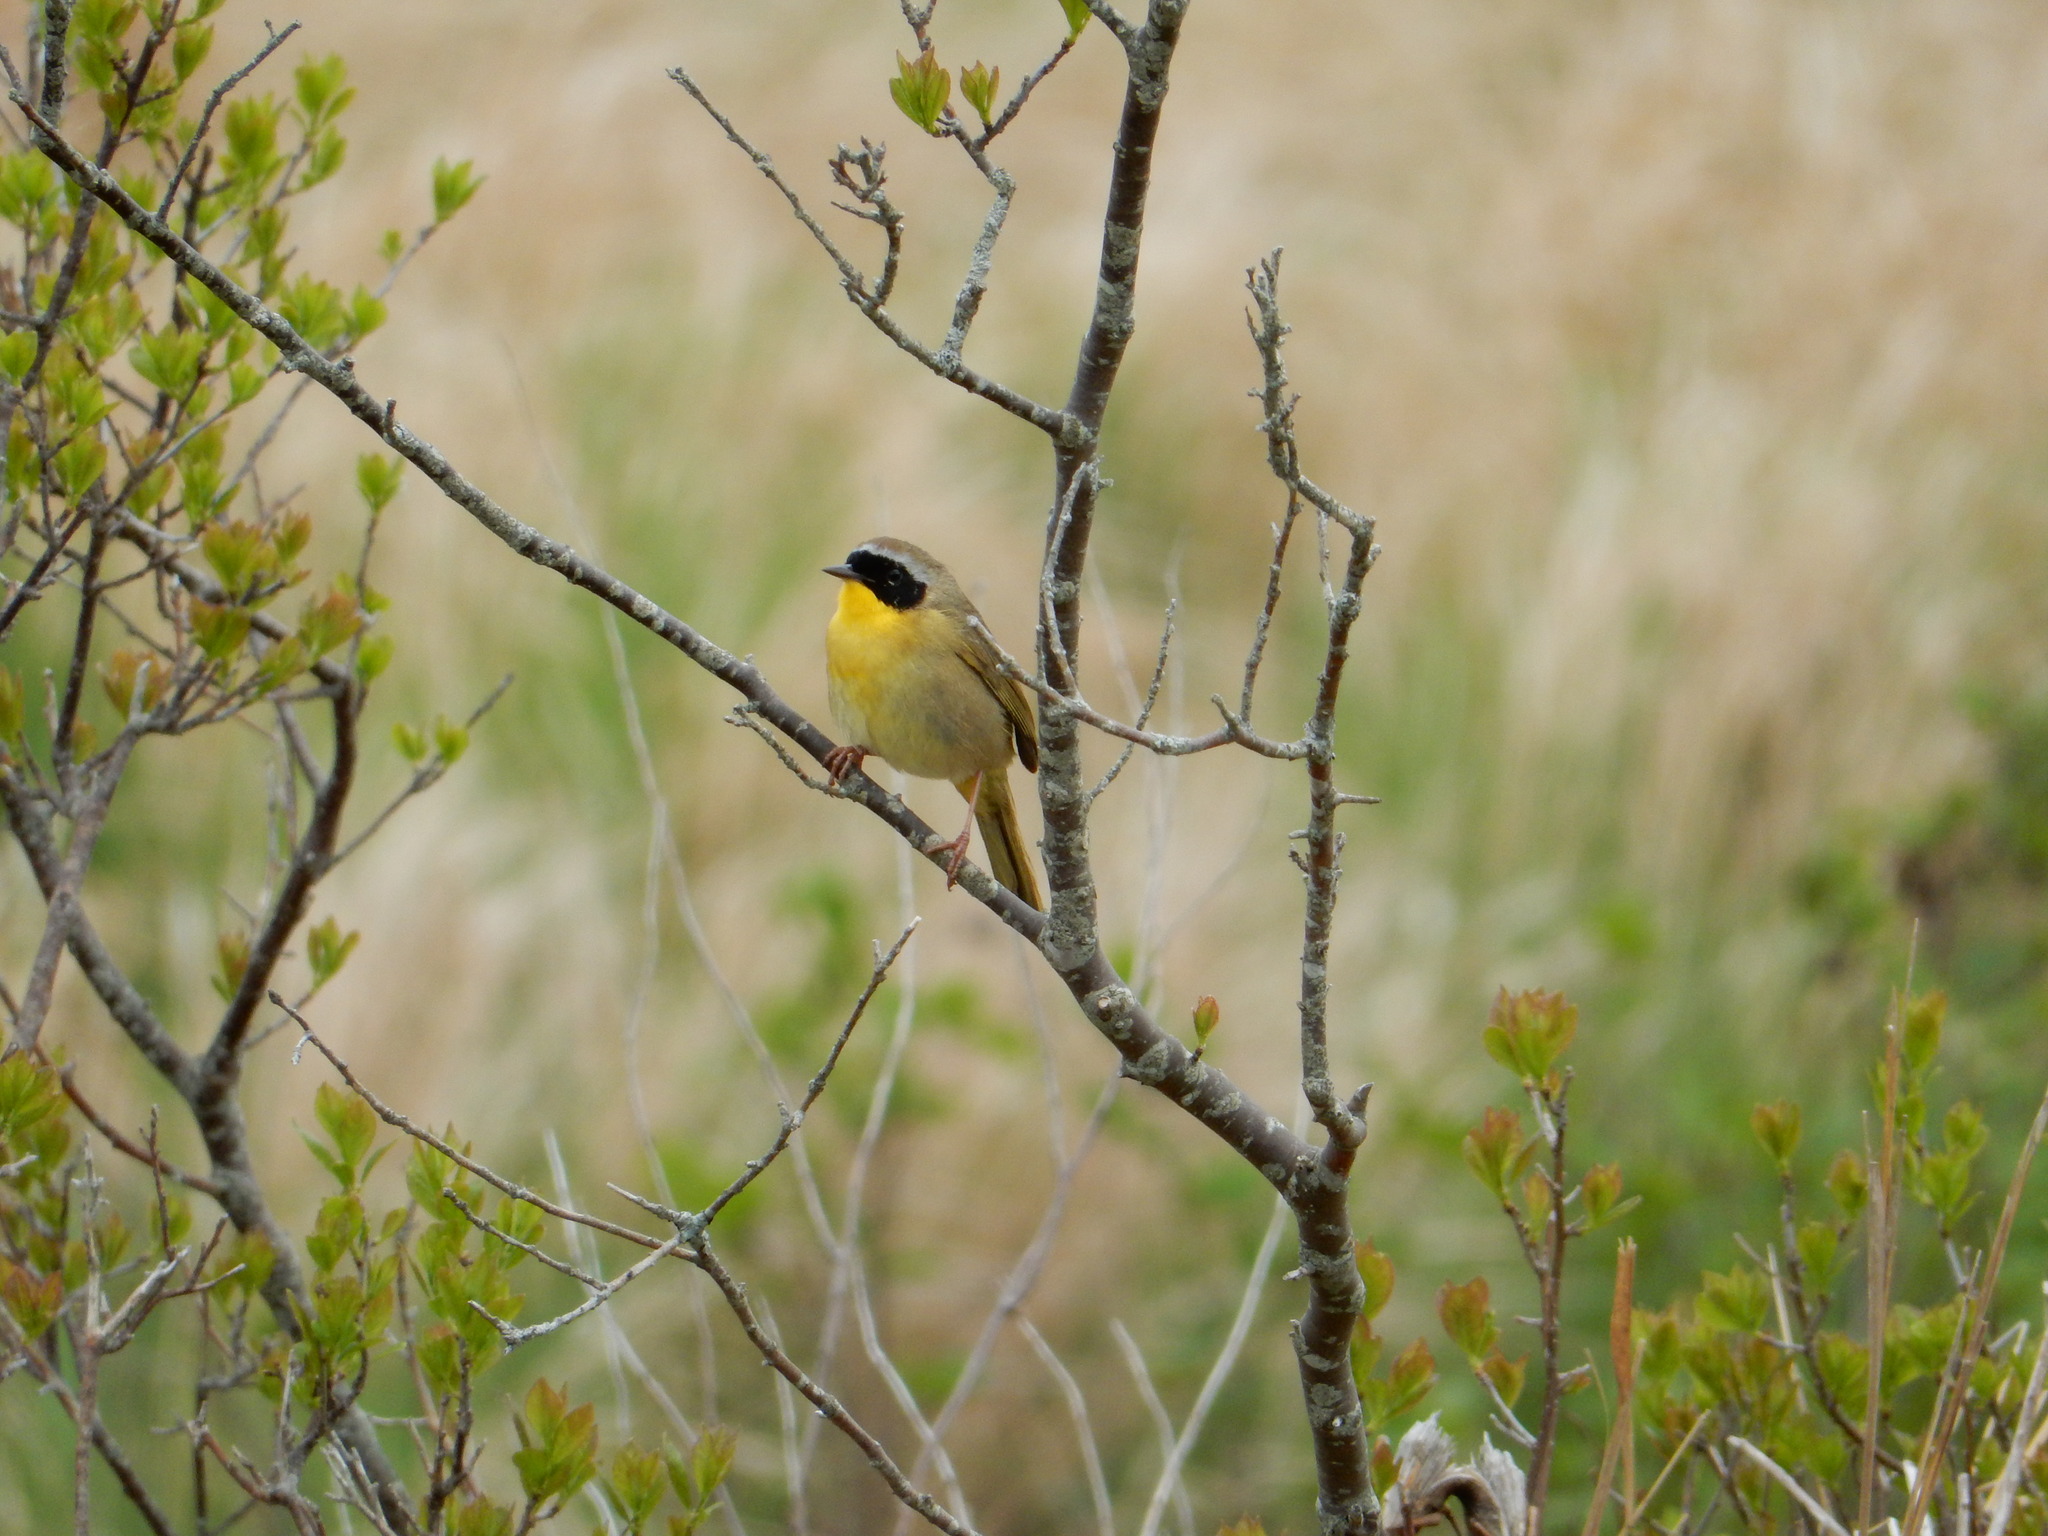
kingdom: Animalia
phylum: Chordata
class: Aves
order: Passeriformes
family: Parulidae
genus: Geothlypis
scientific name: Geothlypis trichas
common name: Common yellowthroat
